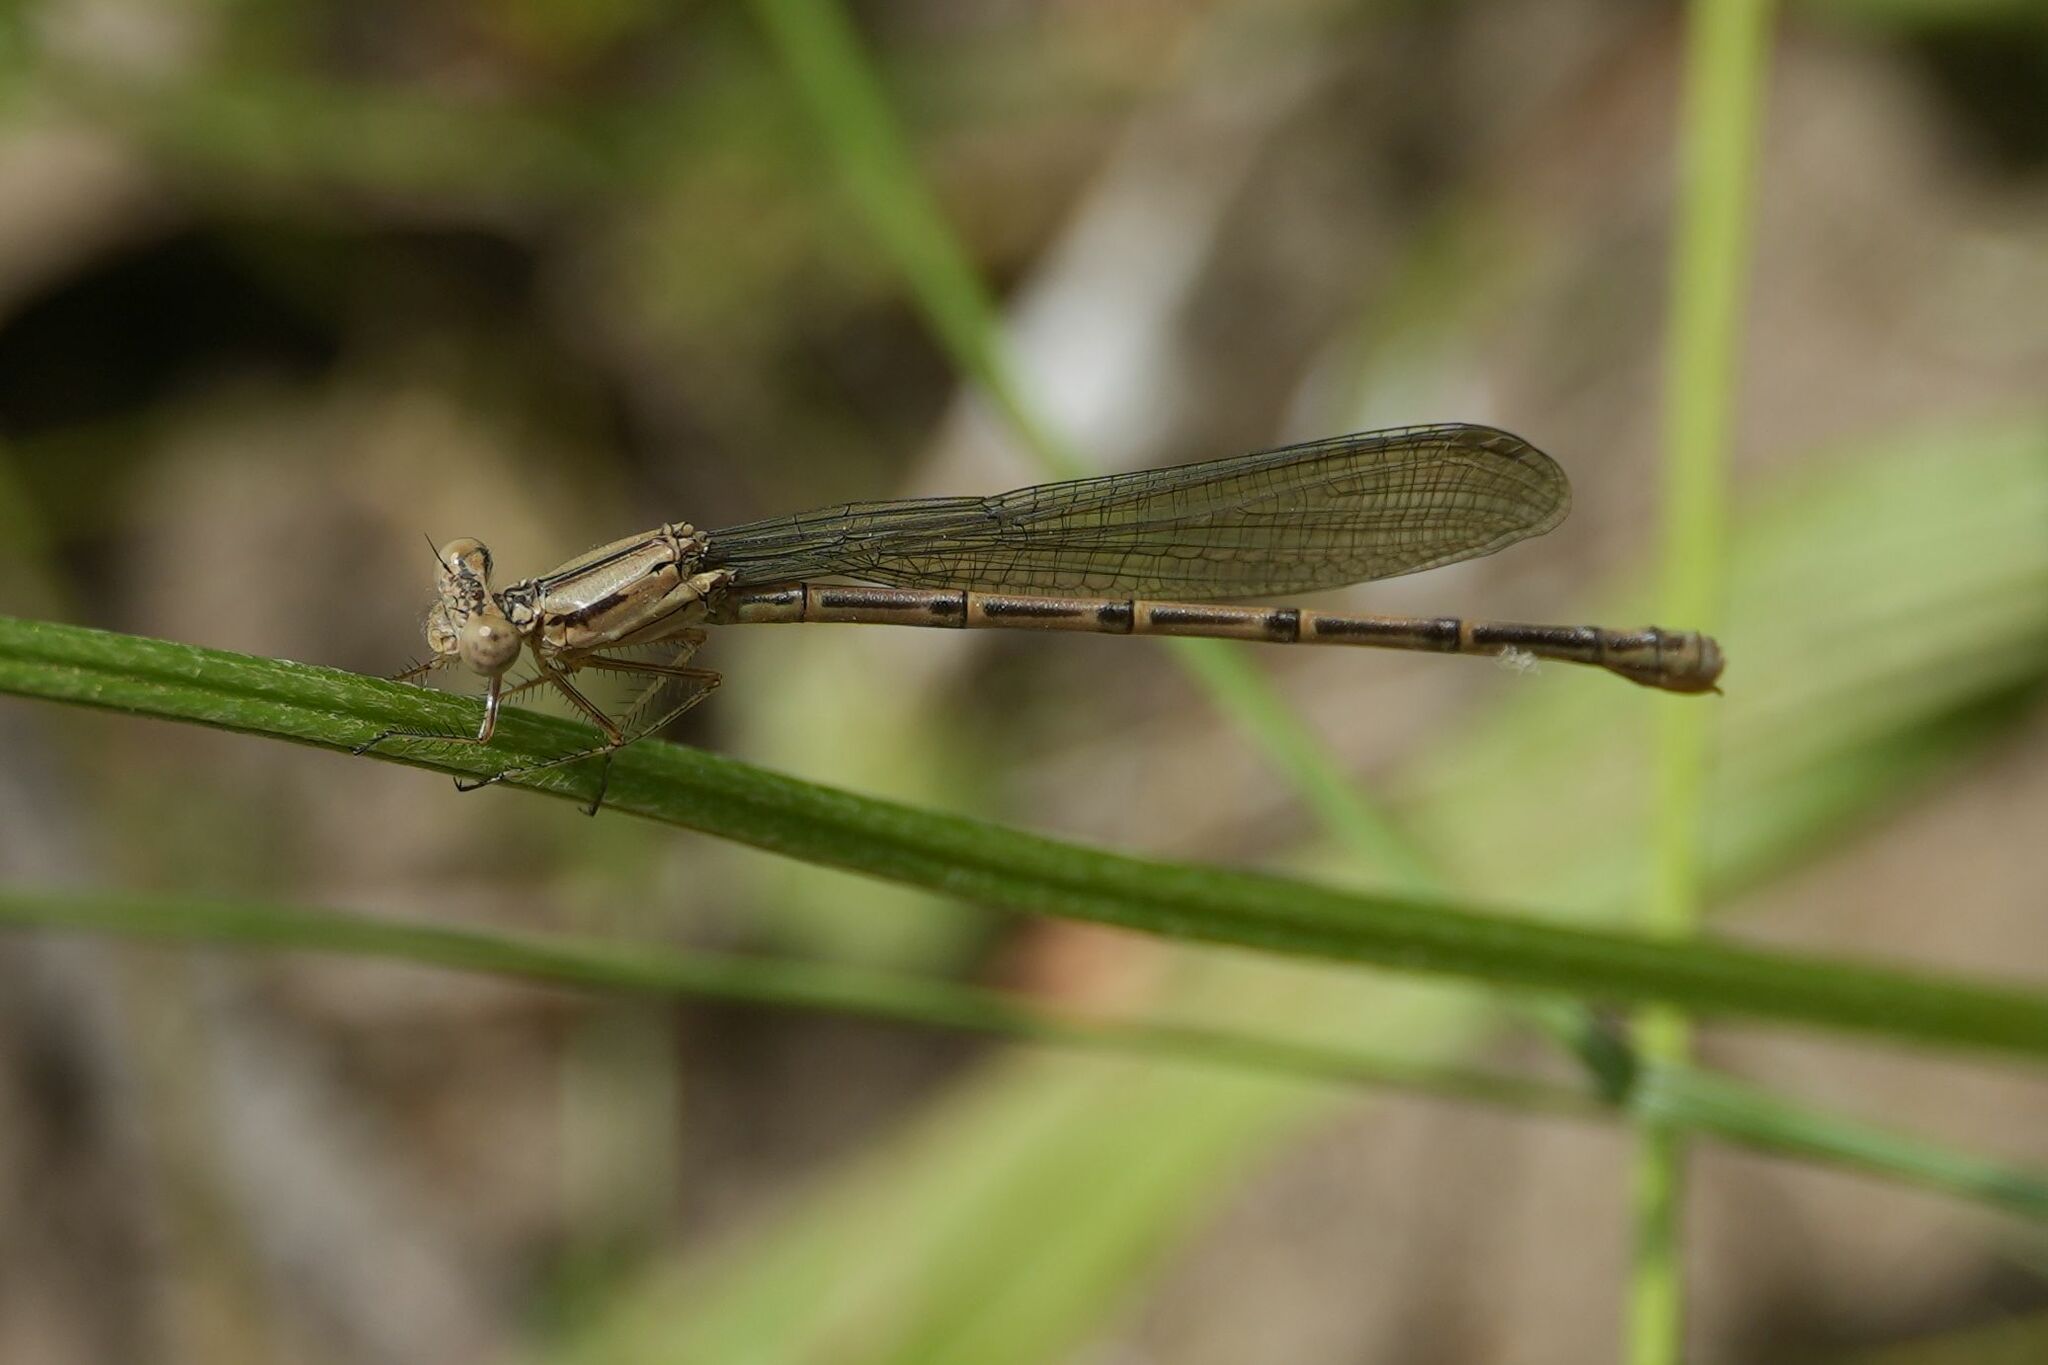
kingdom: Animalia
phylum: Arthropoda
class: Insecta
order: Odonata
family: Coenagrionidae
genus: Argia
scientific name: Argia fumipennis
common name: Variable dancer
